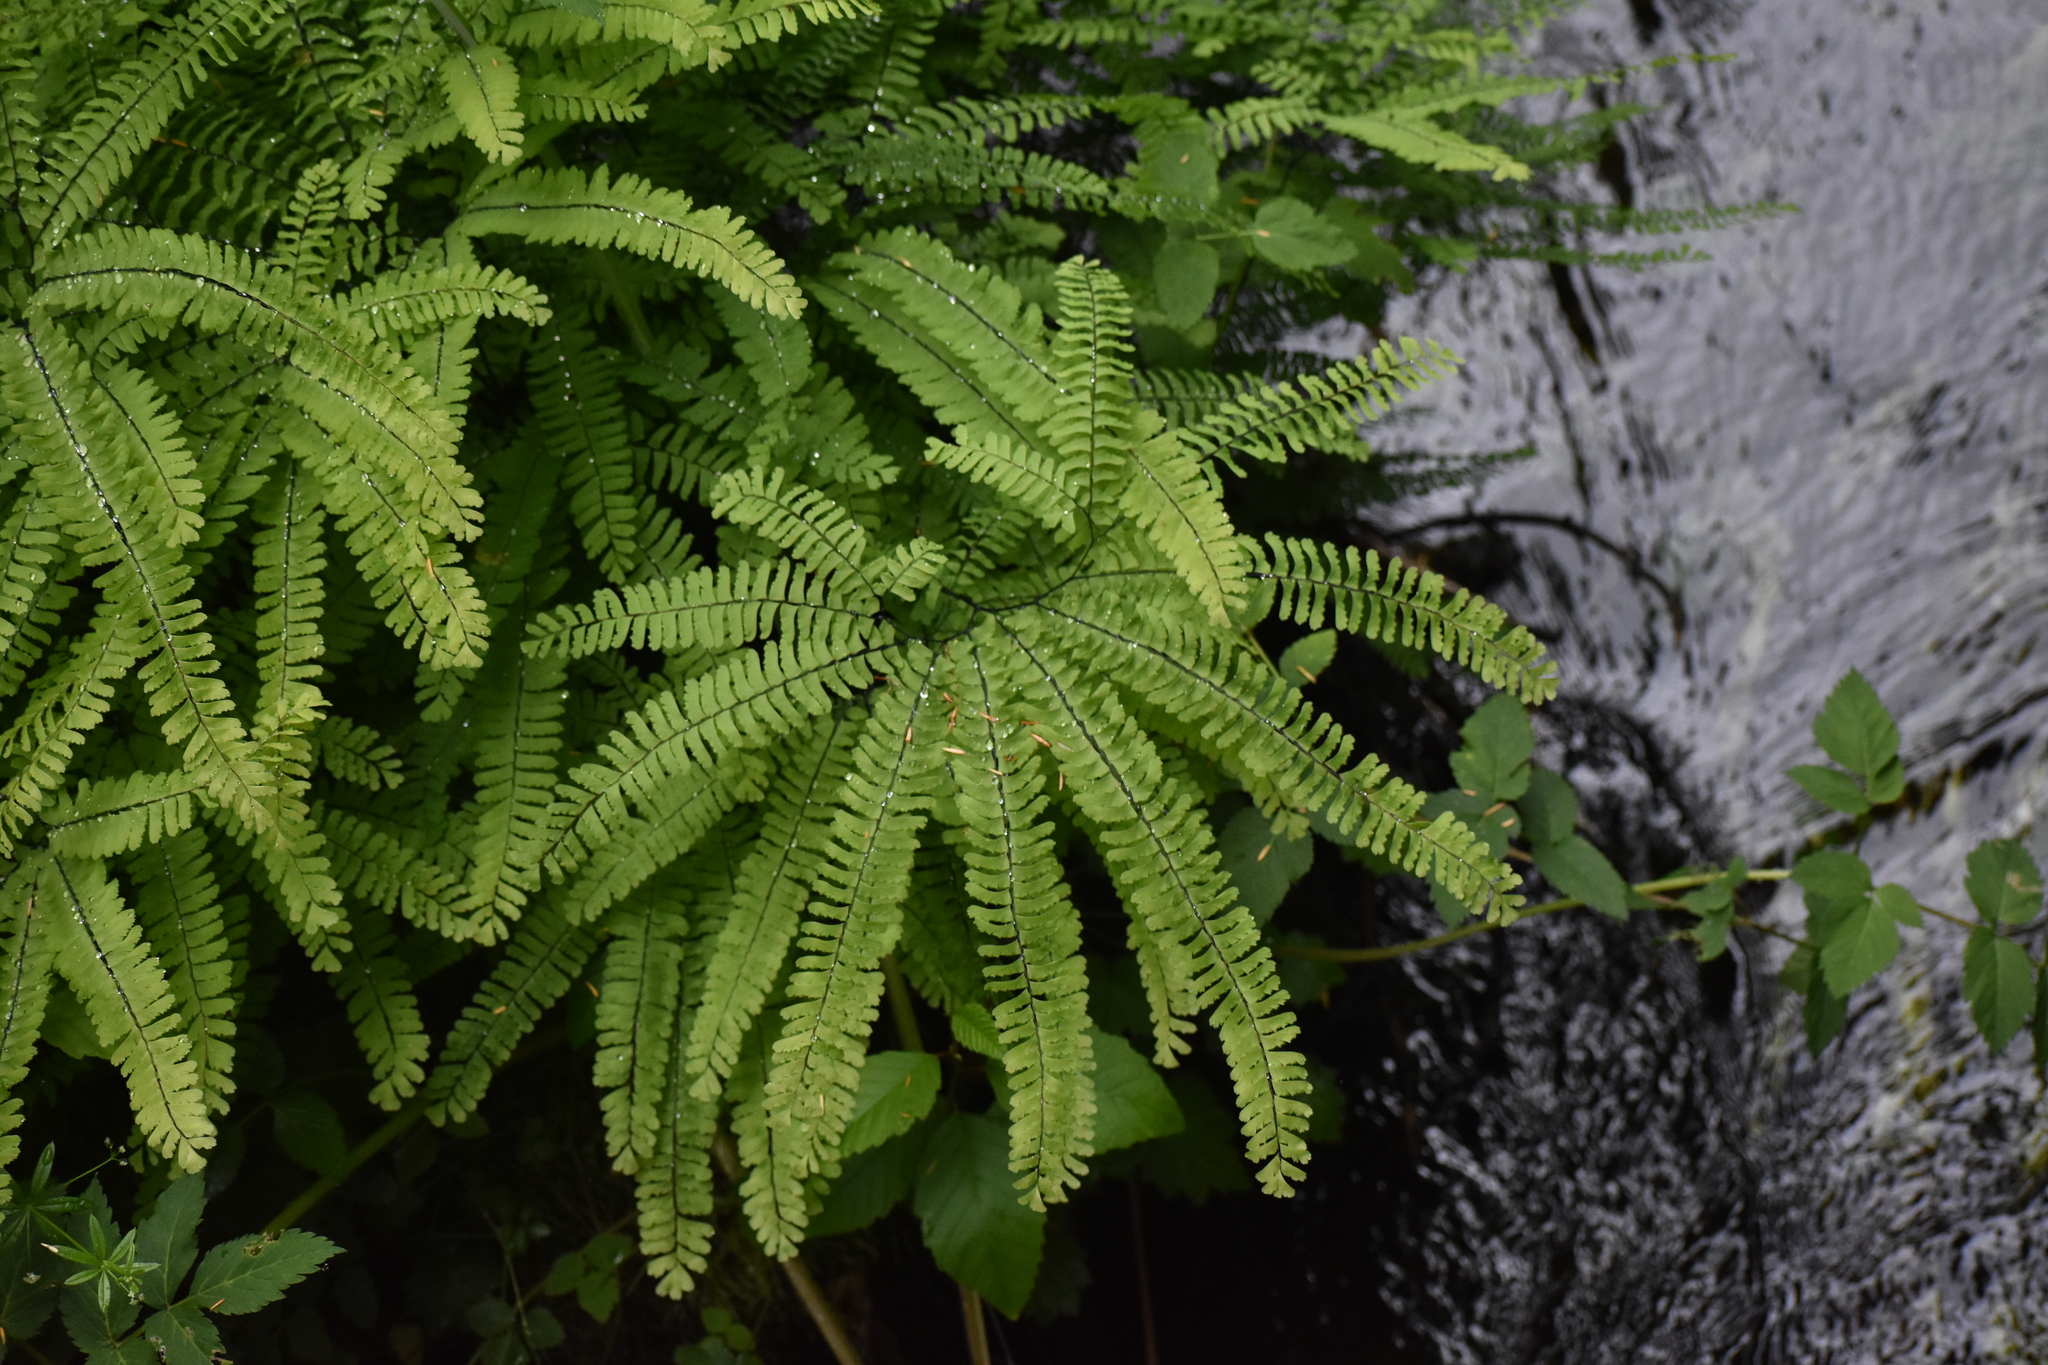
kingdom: Plantae
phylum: Tracheophyta
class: Polypodiopsida
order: Polypodiales
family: Pteridaceae
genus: Adiantum
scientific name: Adiantum aleuticum
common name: Aleutian maidenhair fern
